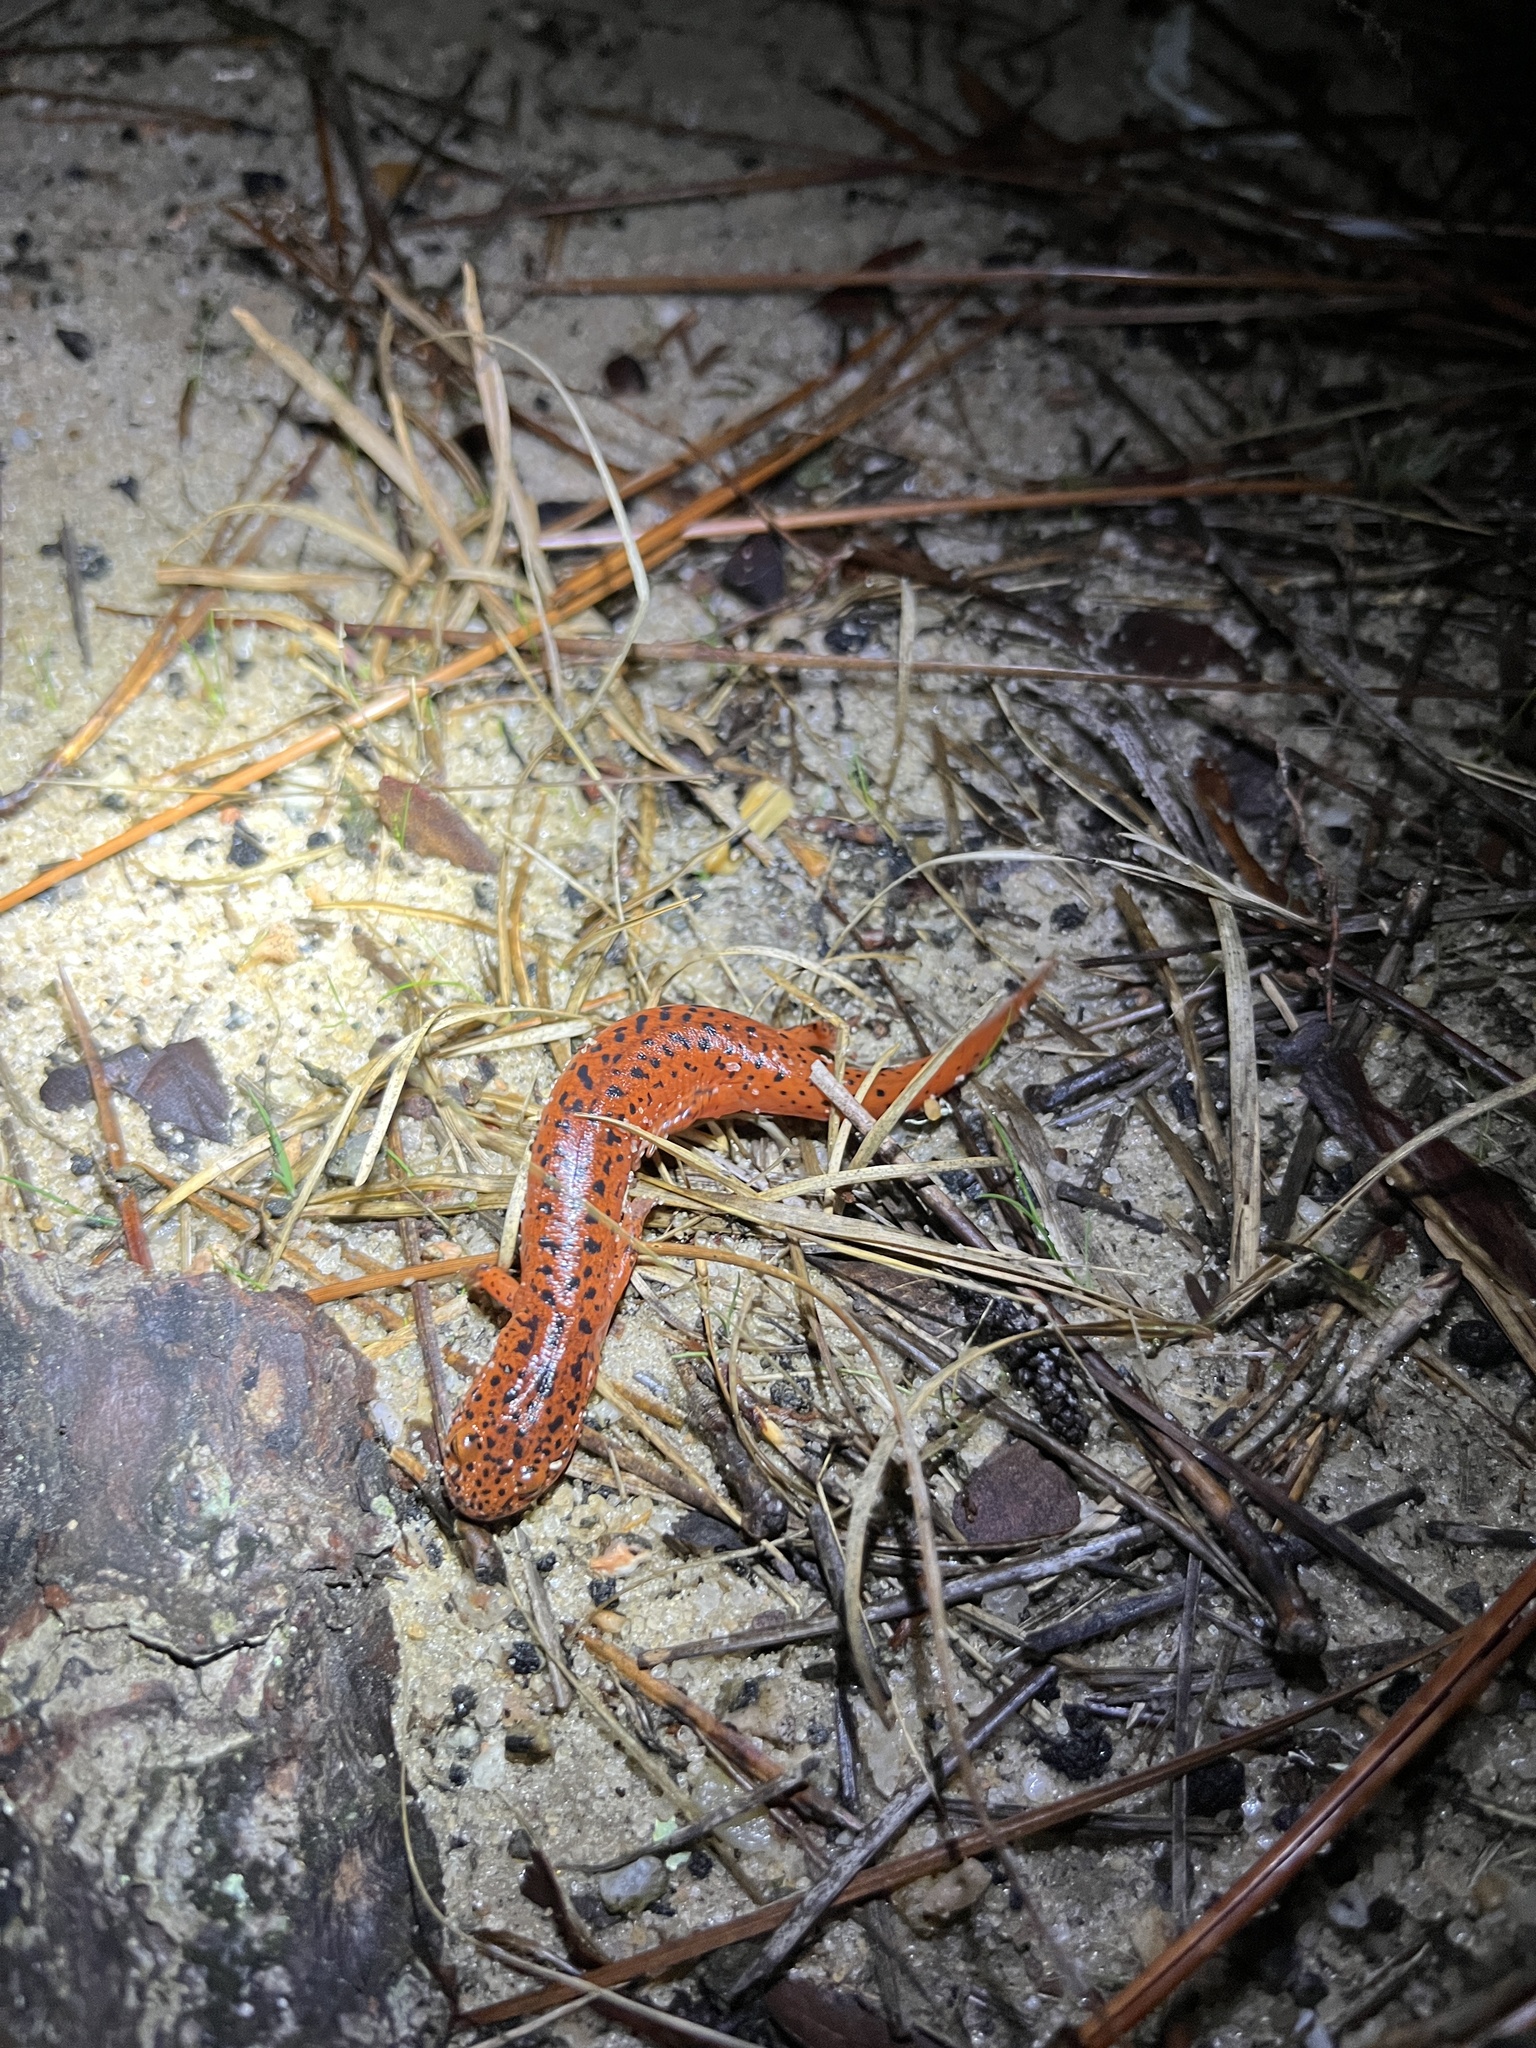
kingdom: Animalia
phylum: Chordata
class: Amphibia
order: Caudata
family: Plethodontidae
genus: Pseudotriton
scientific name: Pseudotriton ruber
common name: Red salamander
